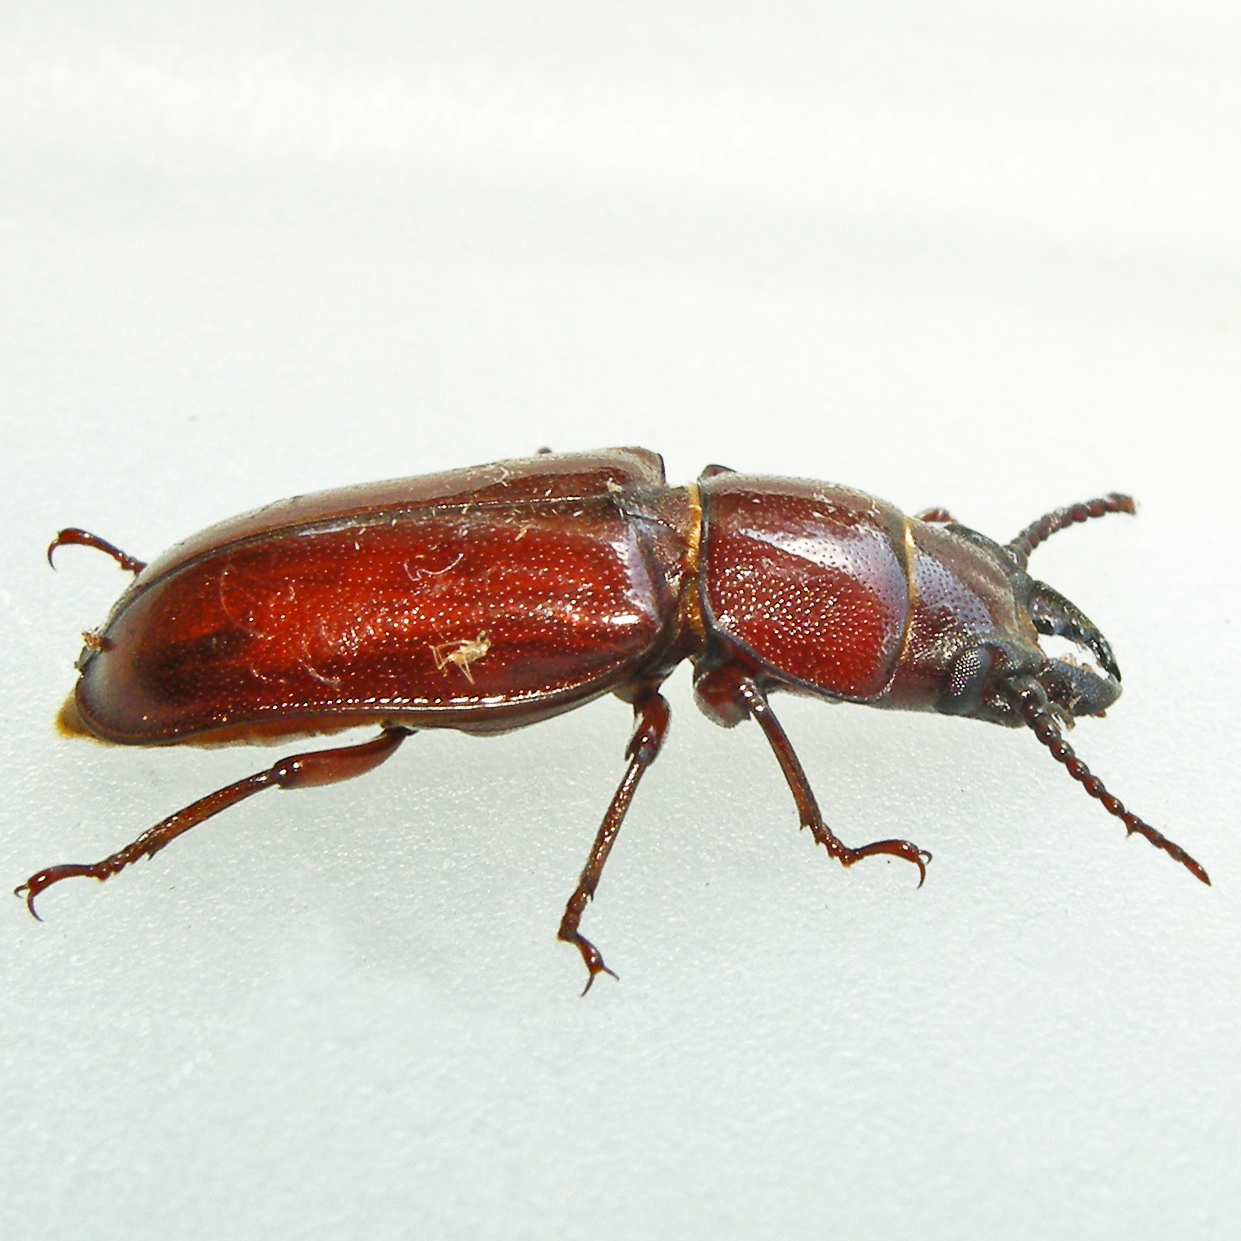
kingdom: Animalia
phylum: Arthropoda
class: Insecta
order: Coleoptera
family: Cerambycidae
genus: Neandra
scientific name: Neandra brunnea
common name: Pole borer
